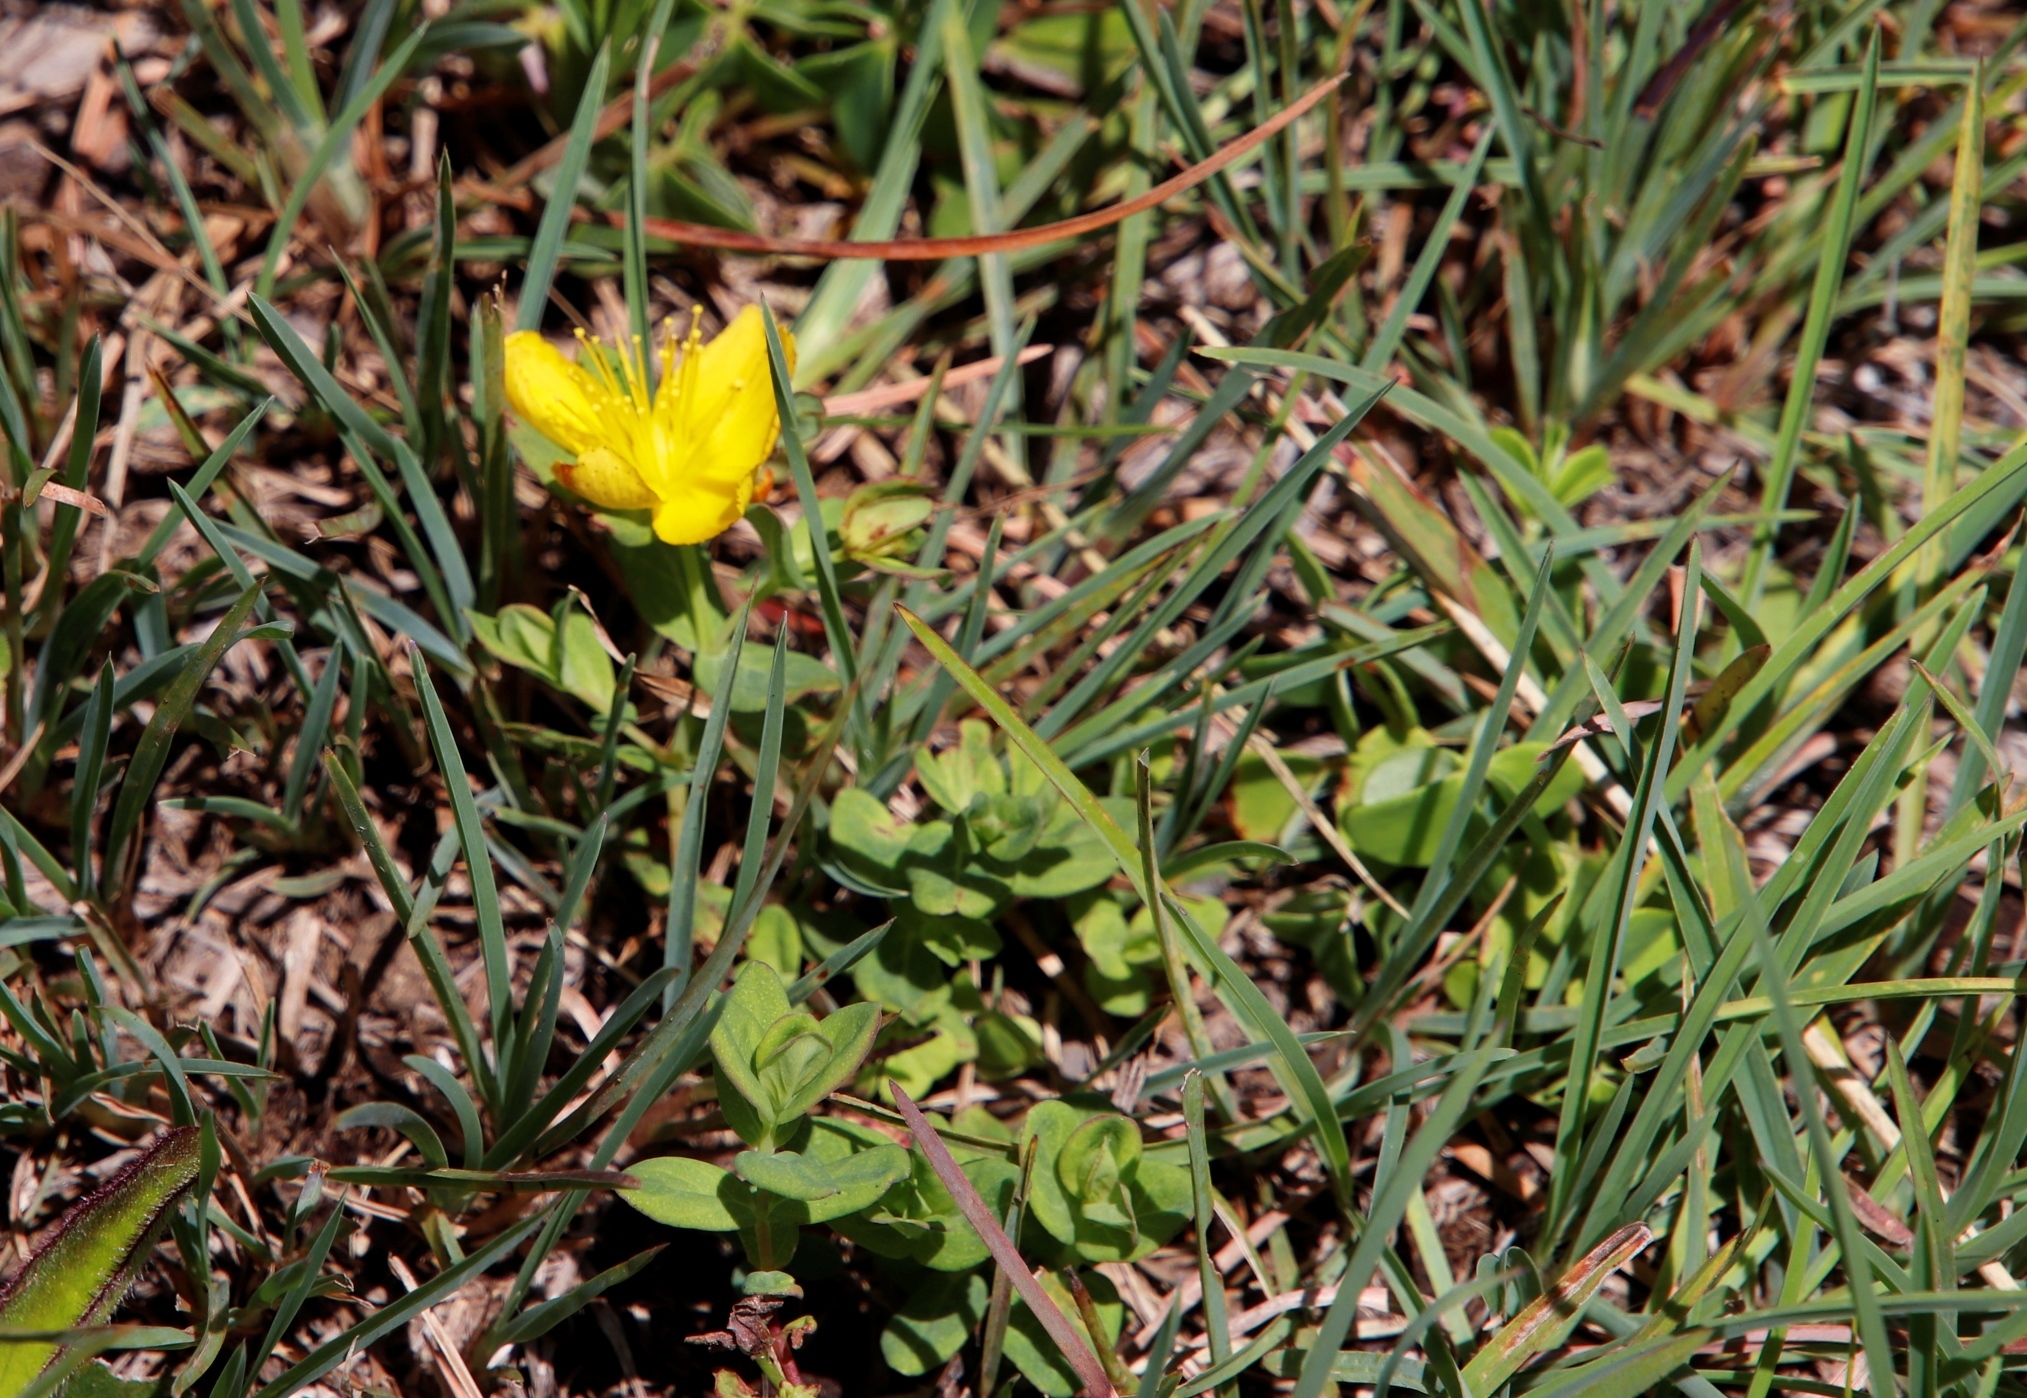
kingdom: Plantae
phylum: Tracheophyta
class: Magnoliopsida
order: Malpighiales
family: Hypericaceae
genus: Hypericum
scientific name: Hypericum aethiopicum
